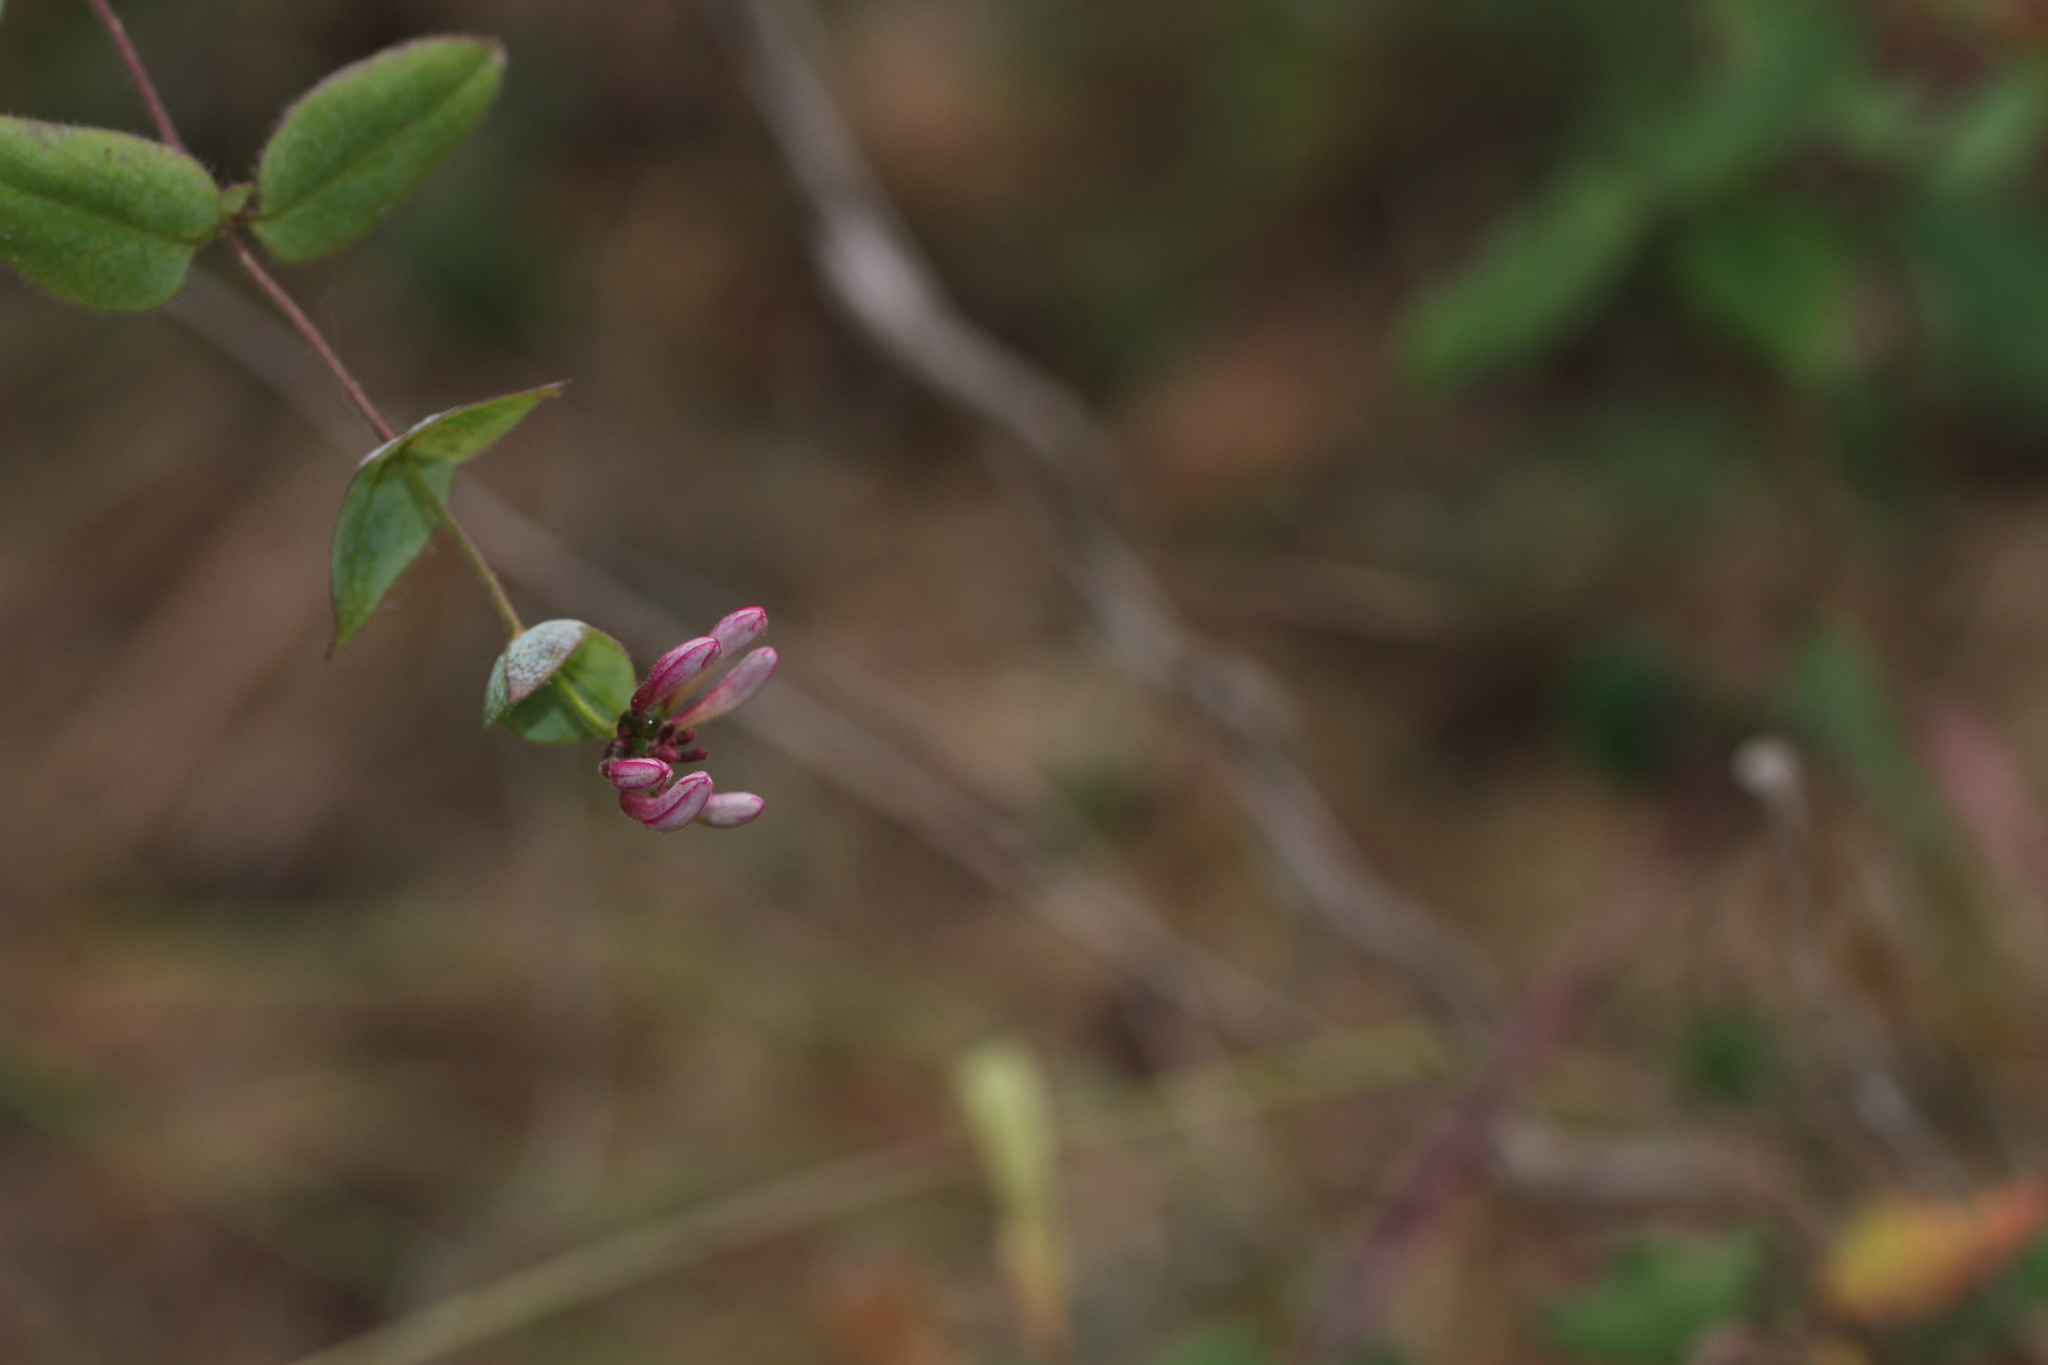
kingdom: Plantae
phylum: Tracheophyta
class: Magnoliopsida
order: Dipsacales
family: Caprifoliaceae
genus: Lonicera
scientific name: Lonicera hispidula
